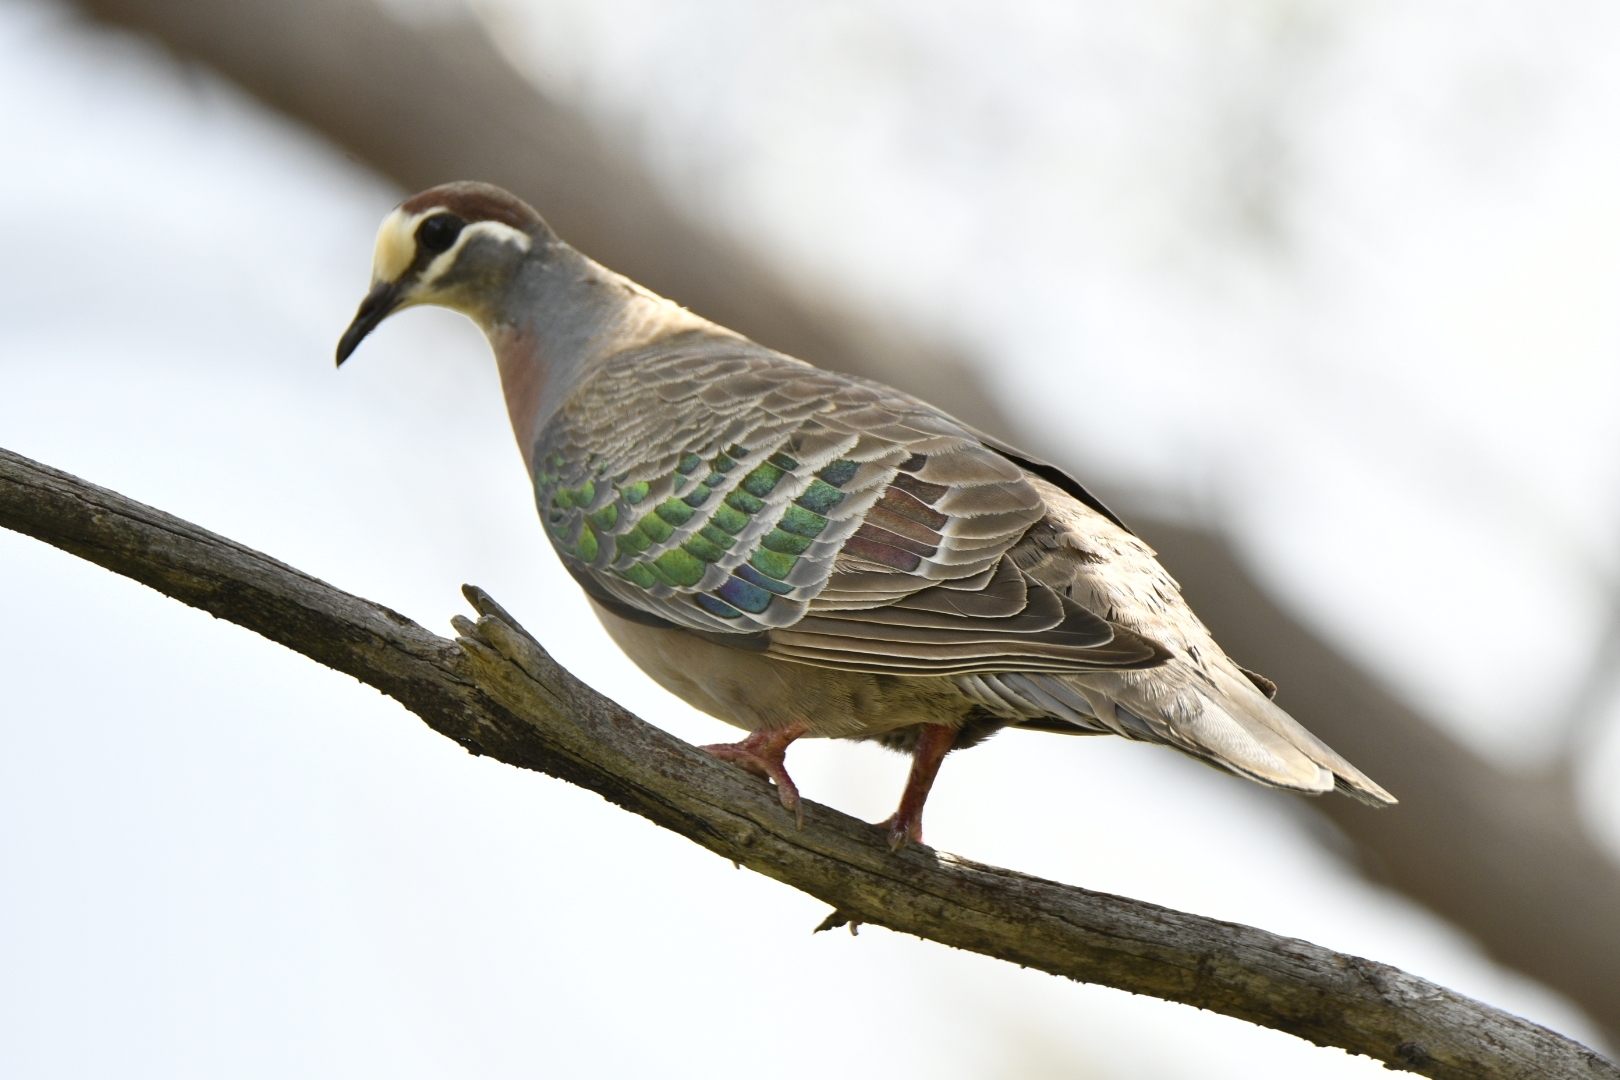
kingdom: Animalia
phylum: Chordata
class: Aves
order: Columbiformes
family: Columbidae
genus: Phaps
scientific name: Phaps chalcoptera
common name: Common bronzewing
